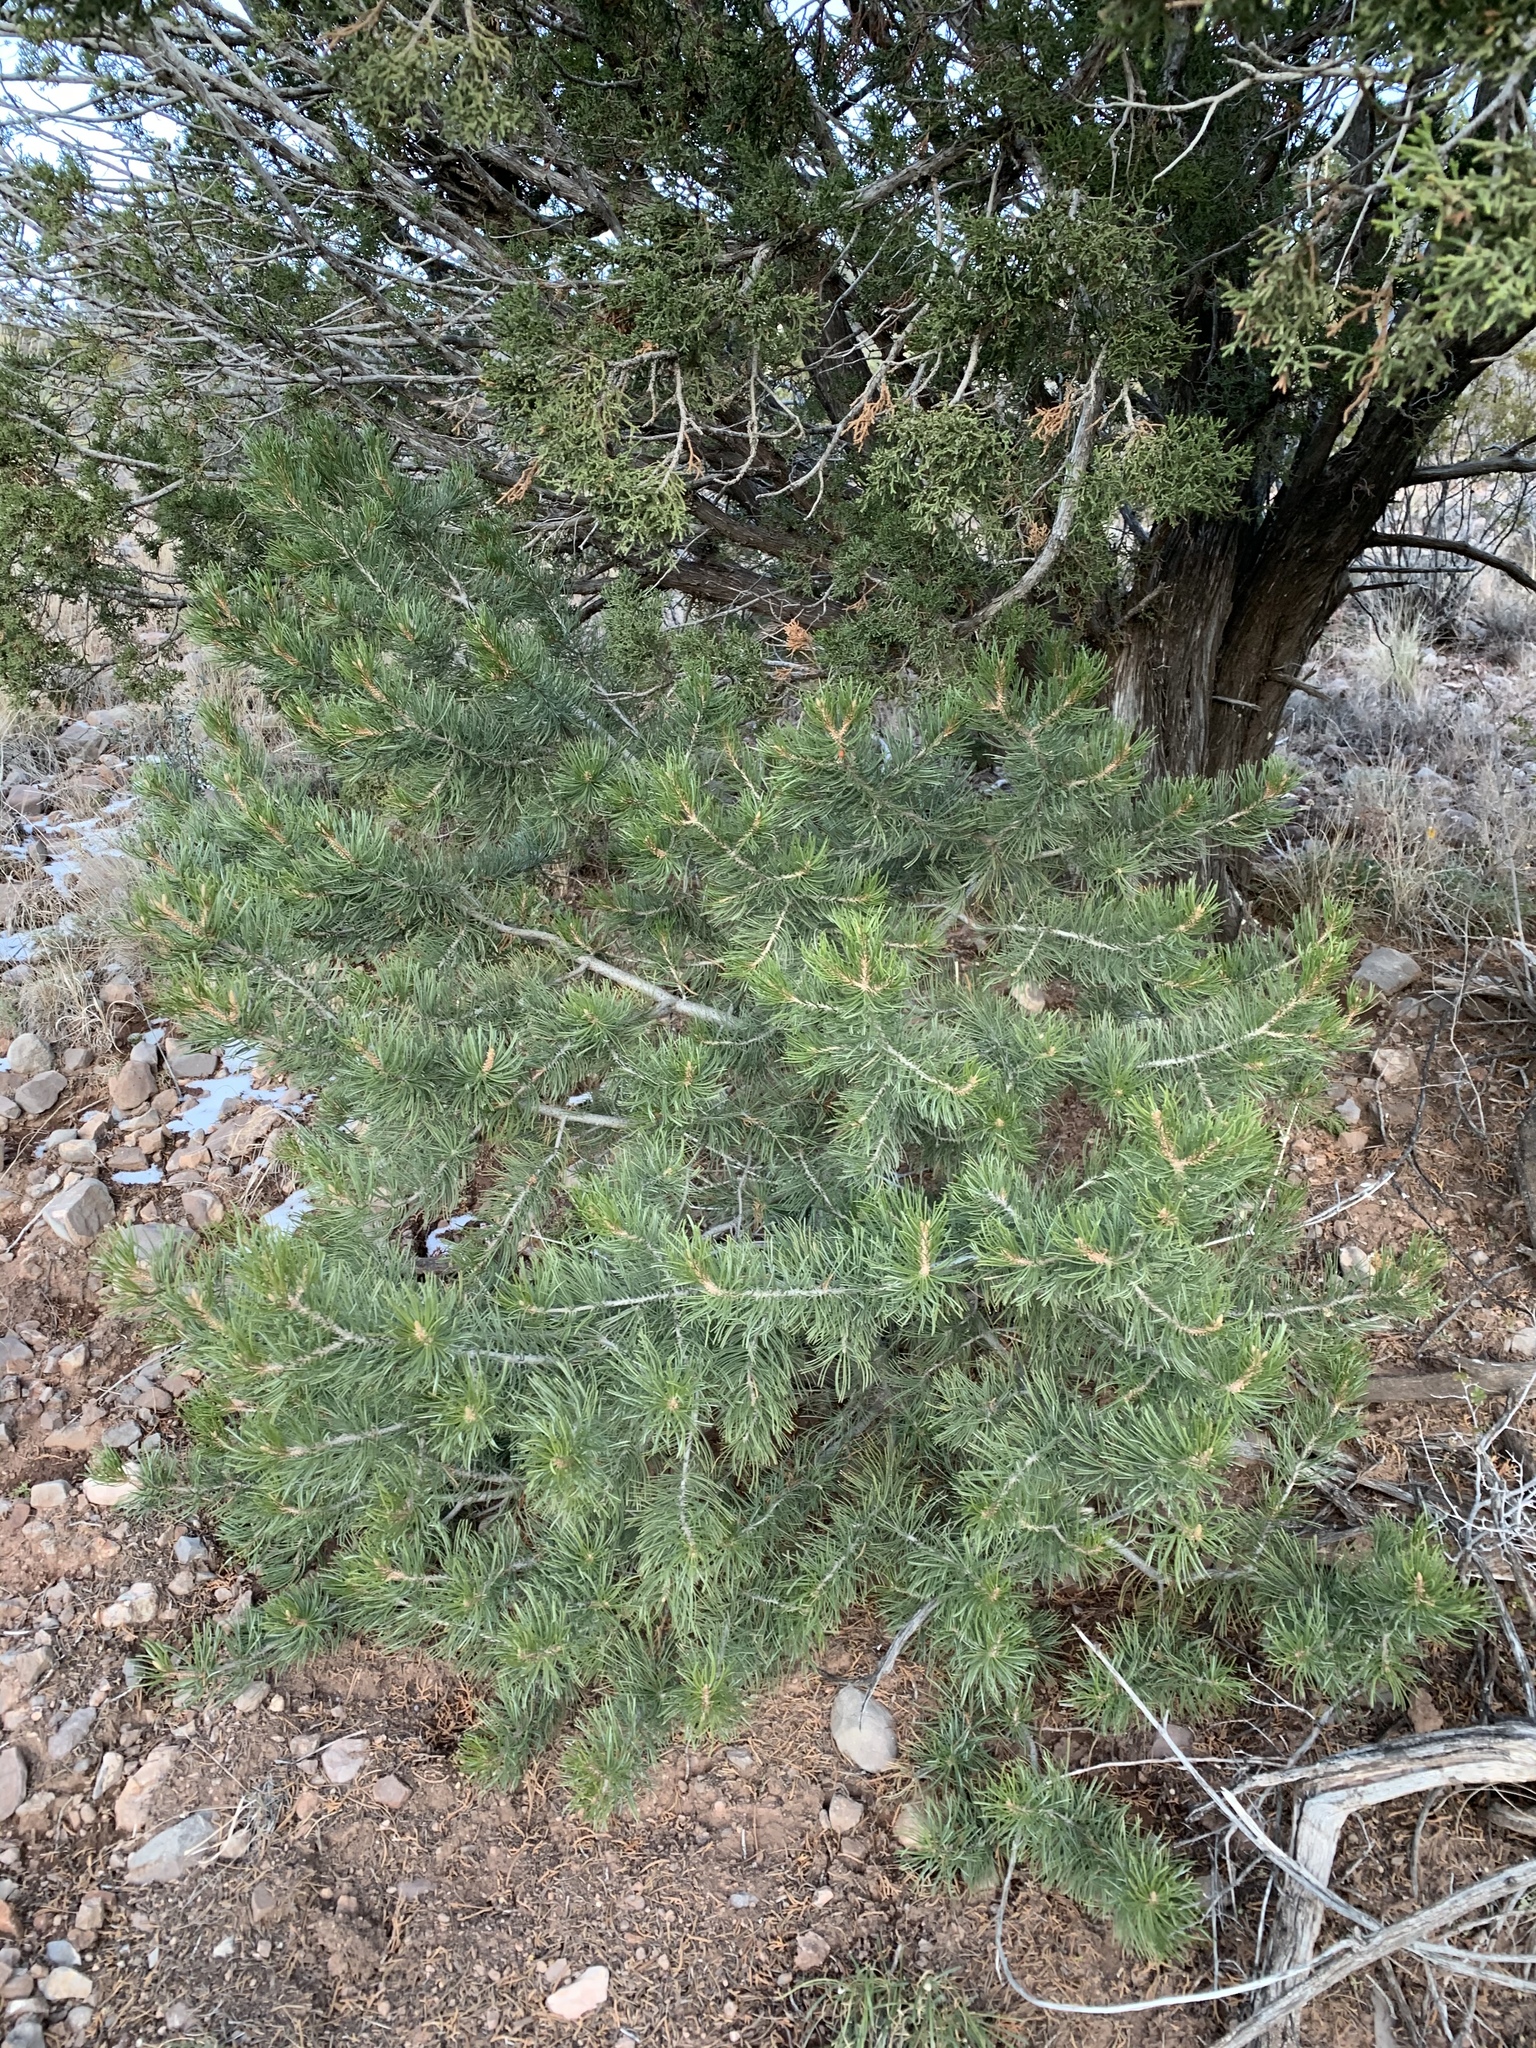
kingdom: Plantae
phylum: Tracheophyta
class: Pinopsida
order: Pinales
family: Pinaceae
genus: Pinus
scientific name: Pinus edulis
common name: Colorado pinyon
